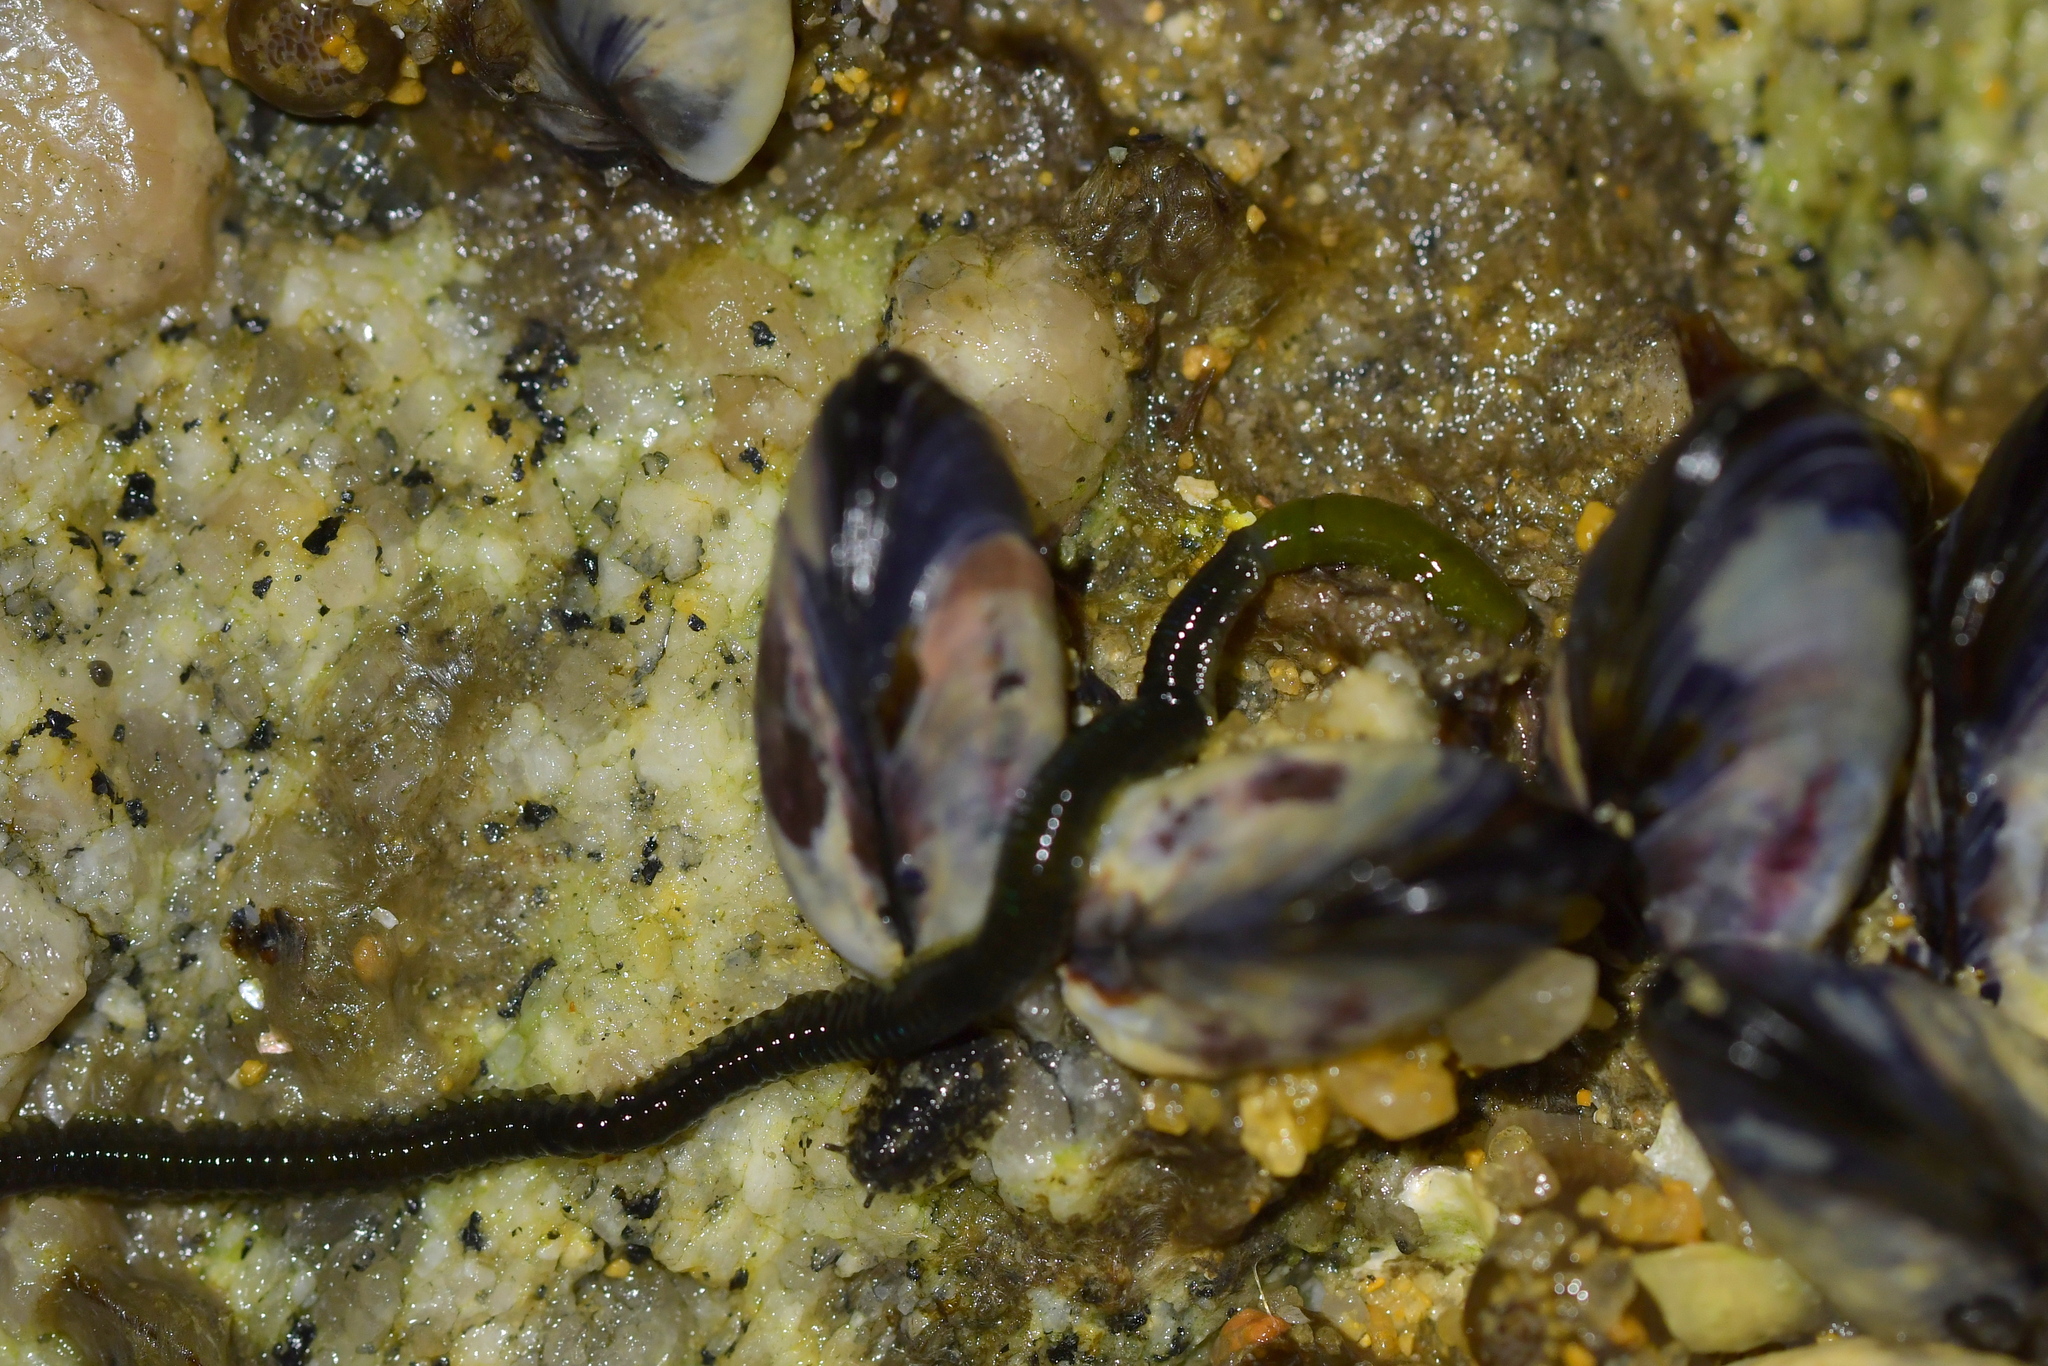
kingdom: Animalia
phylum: Annelida
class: Polychaeta
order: Phyllodocida
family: Phyllodocidae
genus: Eulalia
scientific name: Eulalia microphylla
